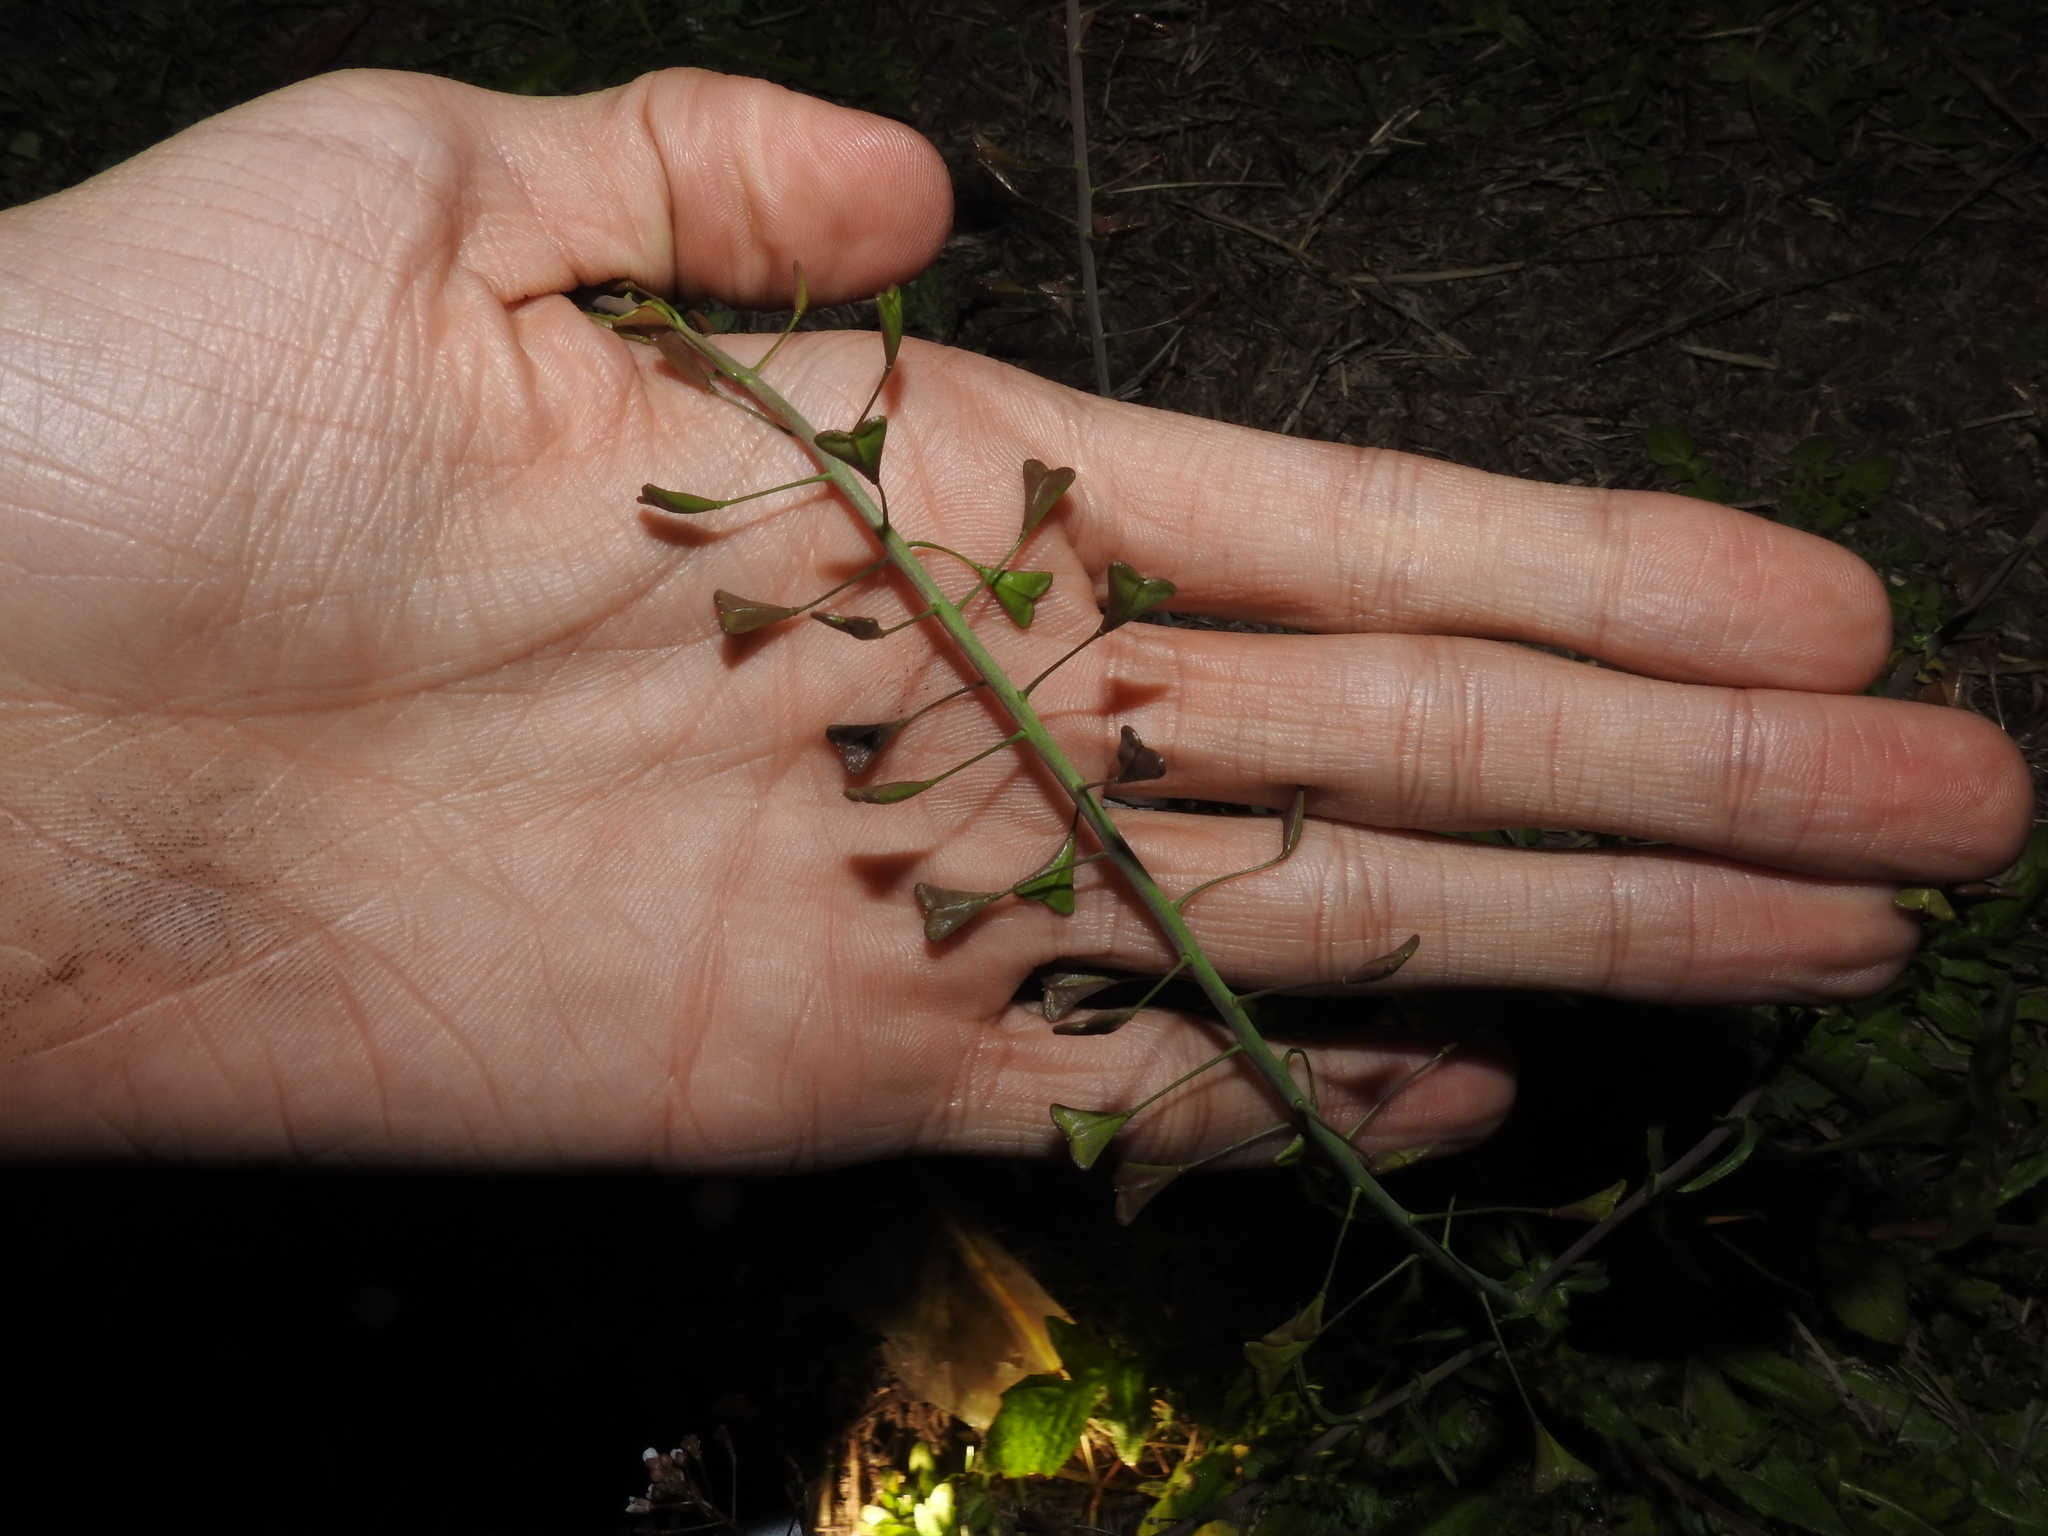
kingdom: Plantae
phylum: Tracheophyta
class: Magnoliopsida
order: Brassicales
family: Brassicaceae
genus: Capsella
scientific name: Capsella bursa-pastoris
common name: Shepherd's purse
